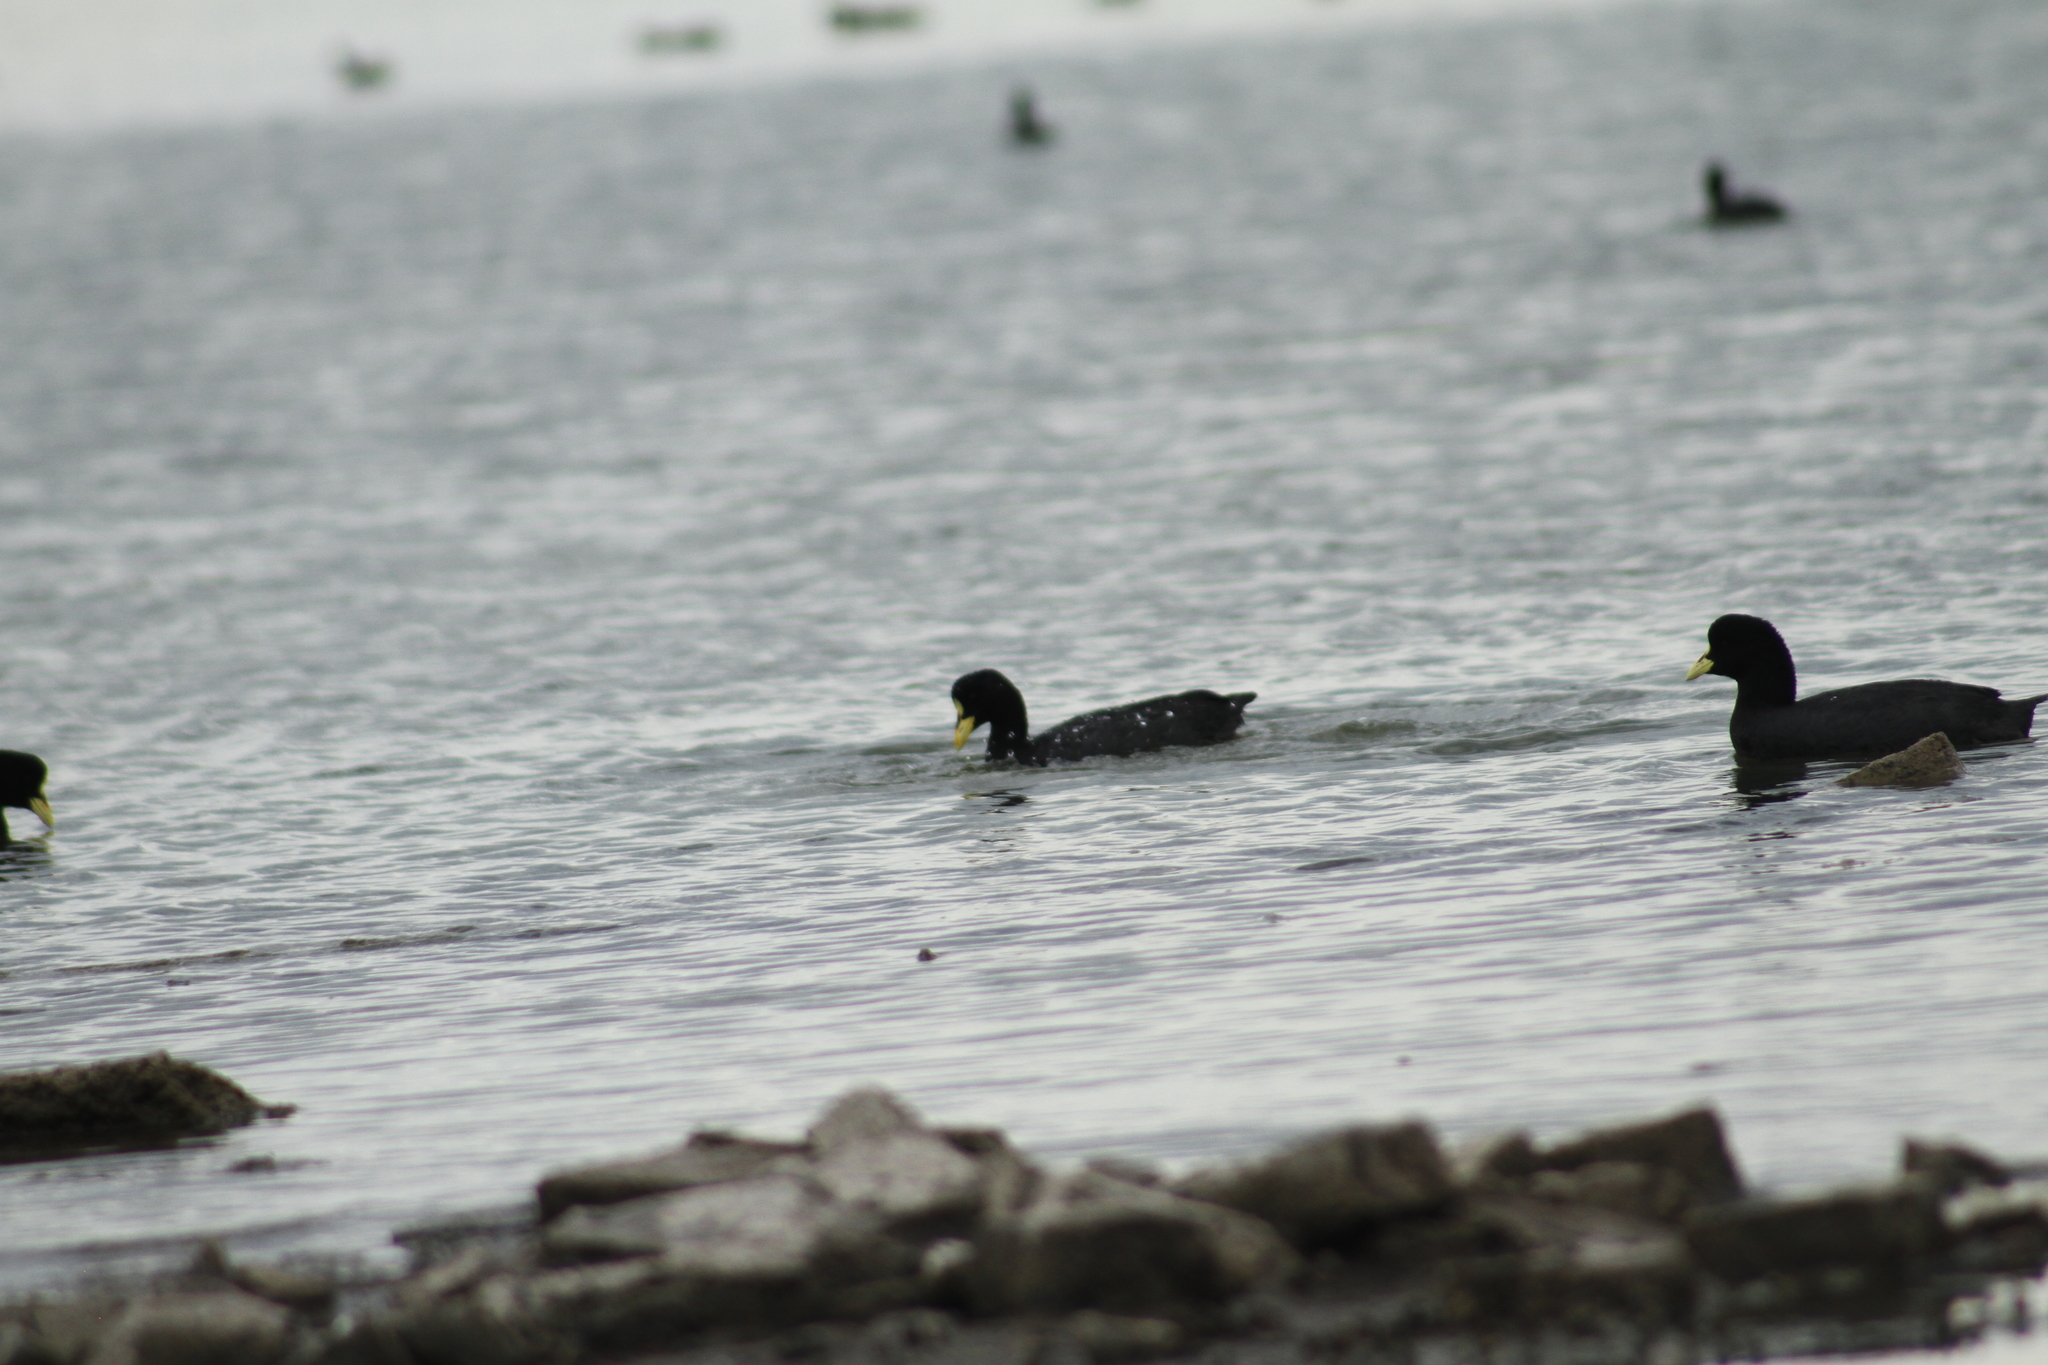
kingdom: Animalia
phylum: Chordata
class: Aves
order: Gruiformes
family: Rallidae
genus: Fulica
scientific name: Fulica armillata
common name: Red-gartered coot
